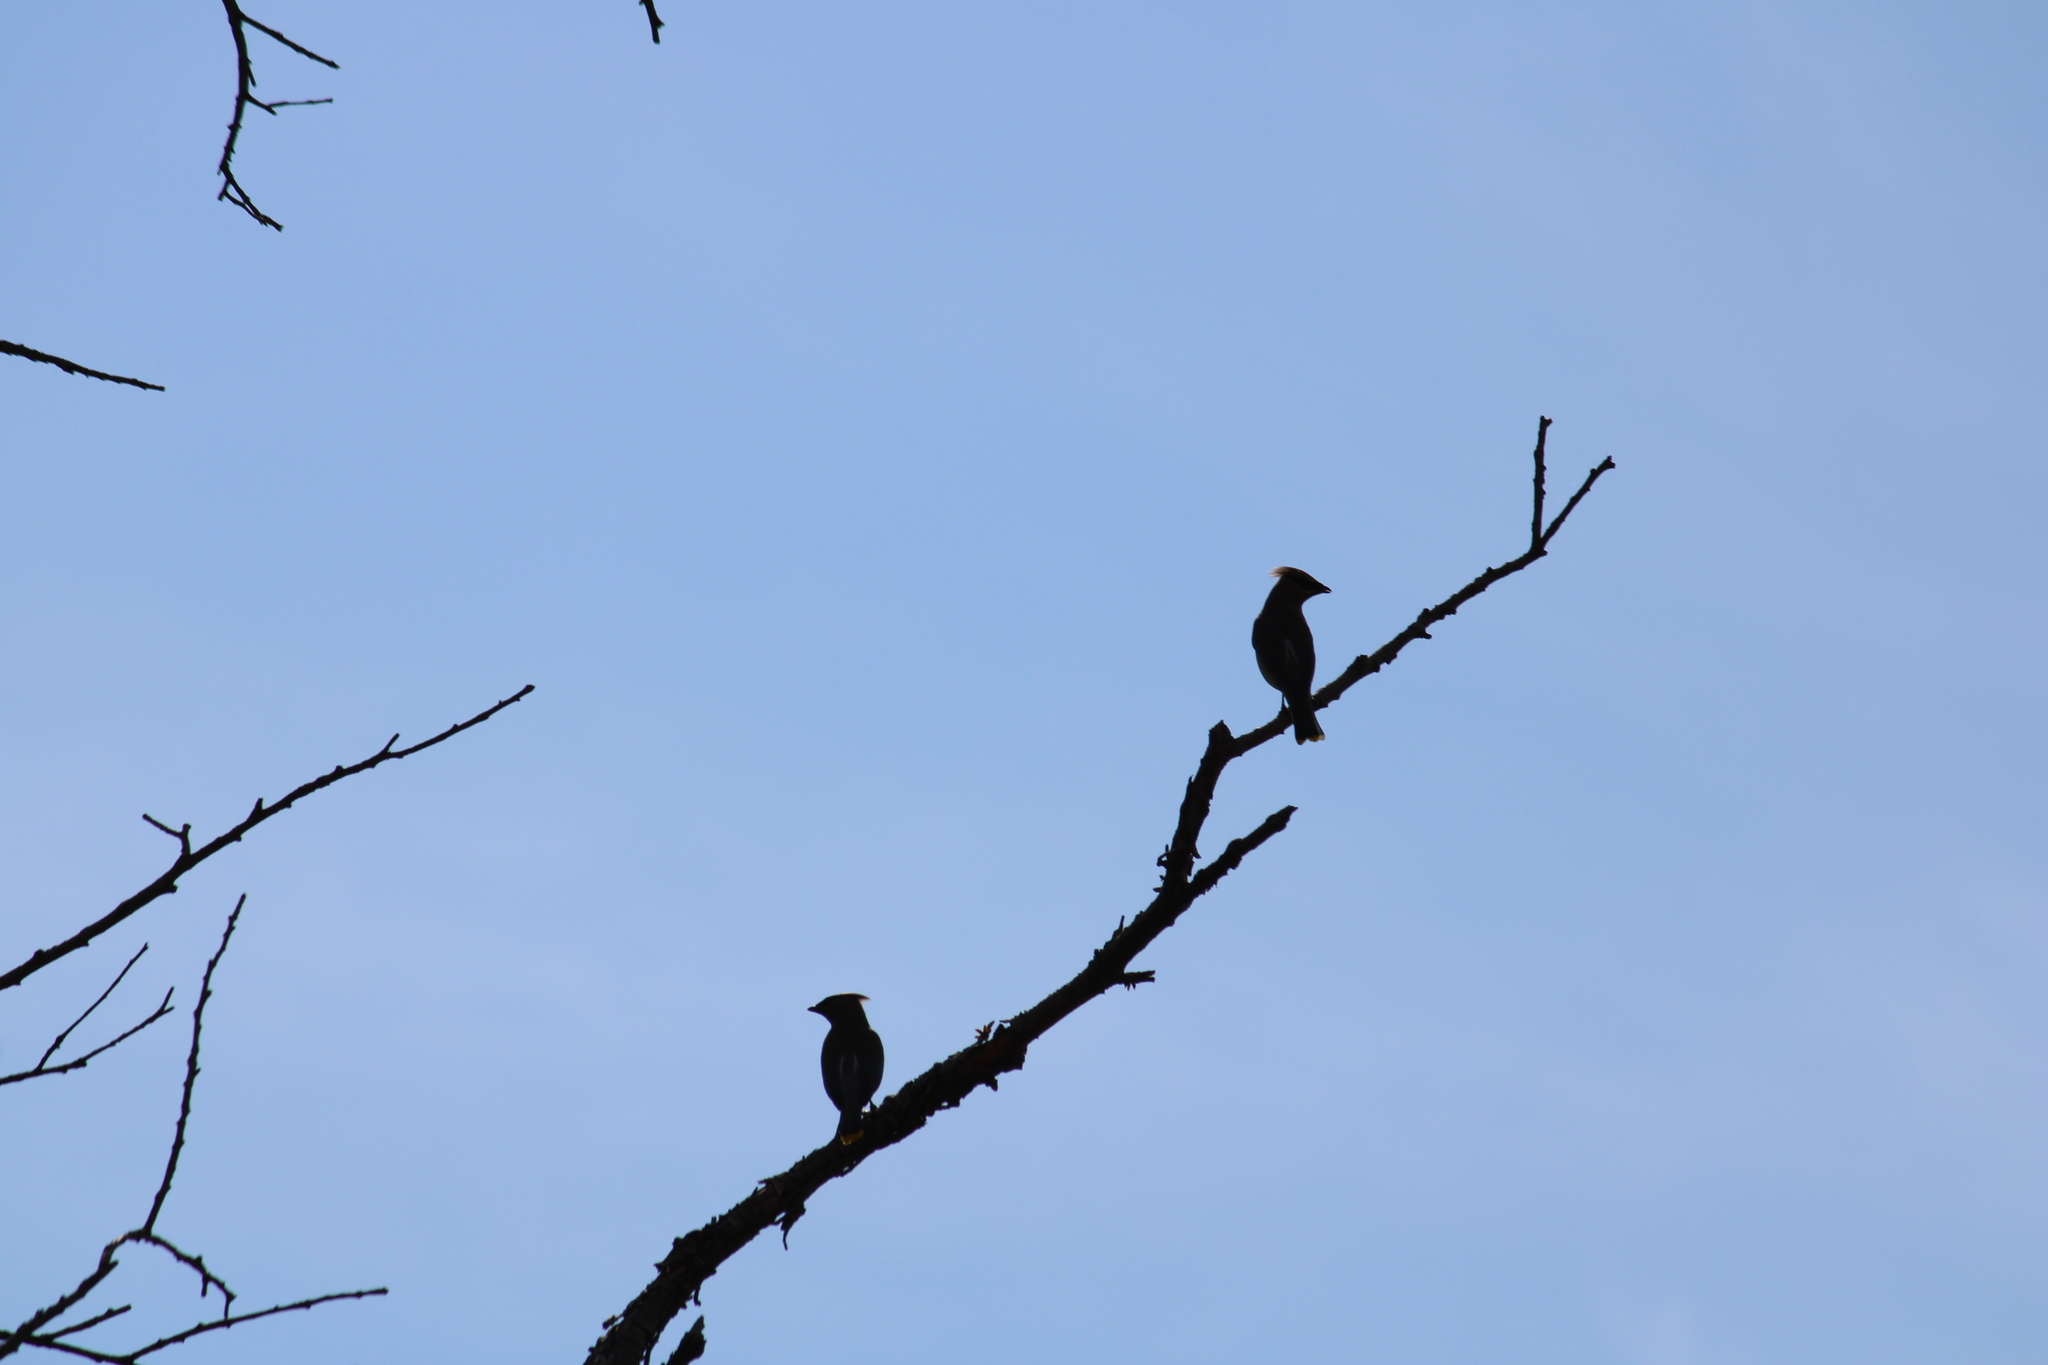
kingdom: Animalia
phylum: Chordata
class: Aves
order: Passeriformes
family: Bombycillidae
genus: Bombycilla
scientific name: Bombycilla cedrorum
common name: Cedar waxwing
